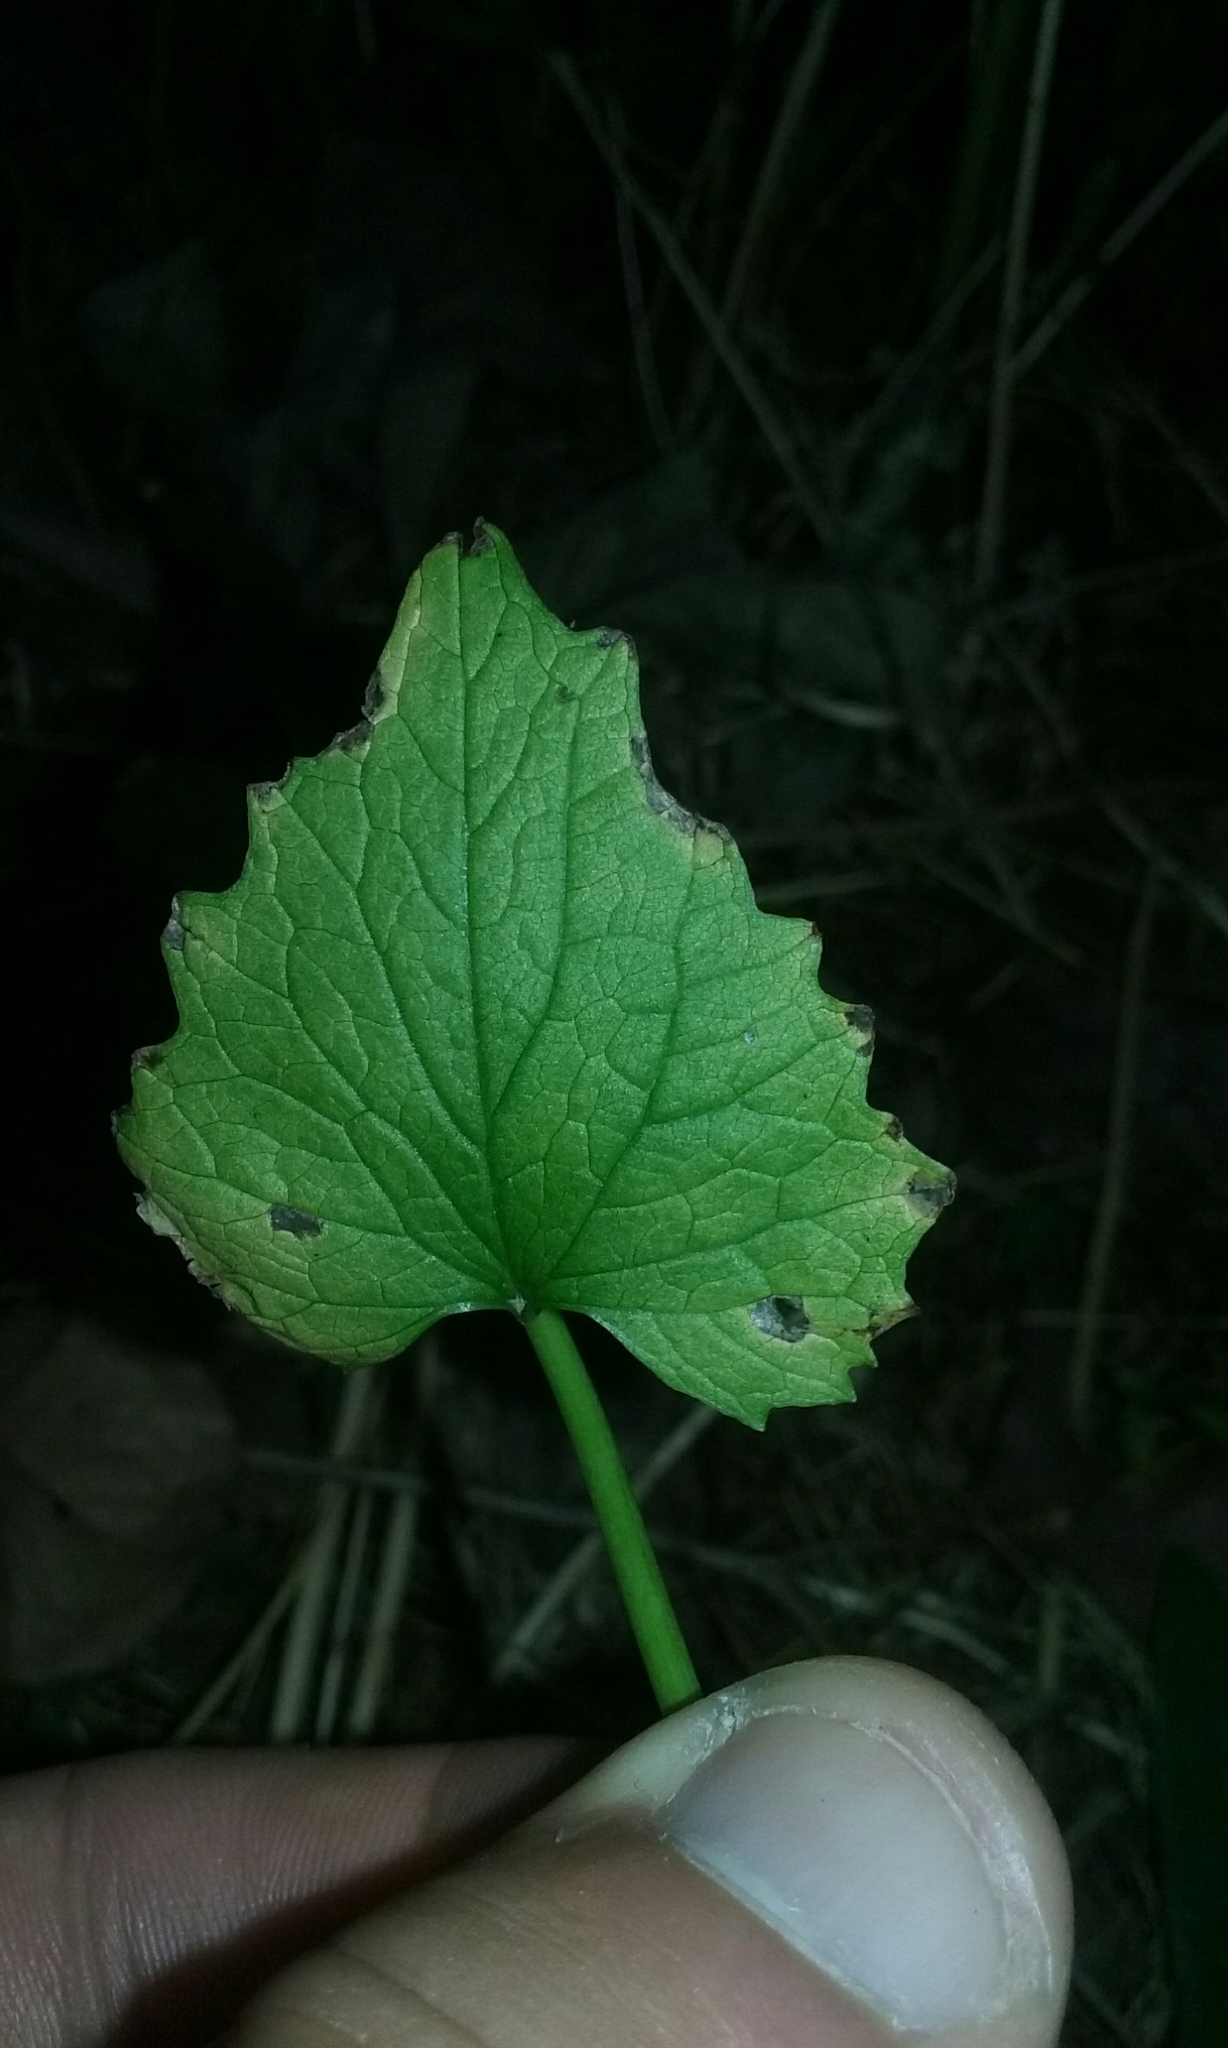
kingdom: Plantae
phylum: Tracheophyta
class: Magnoliopsida
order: Brassicales
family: Brassicaceae
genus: Alliaria
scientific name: Alliaria petiolata
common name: Garlic mustard
